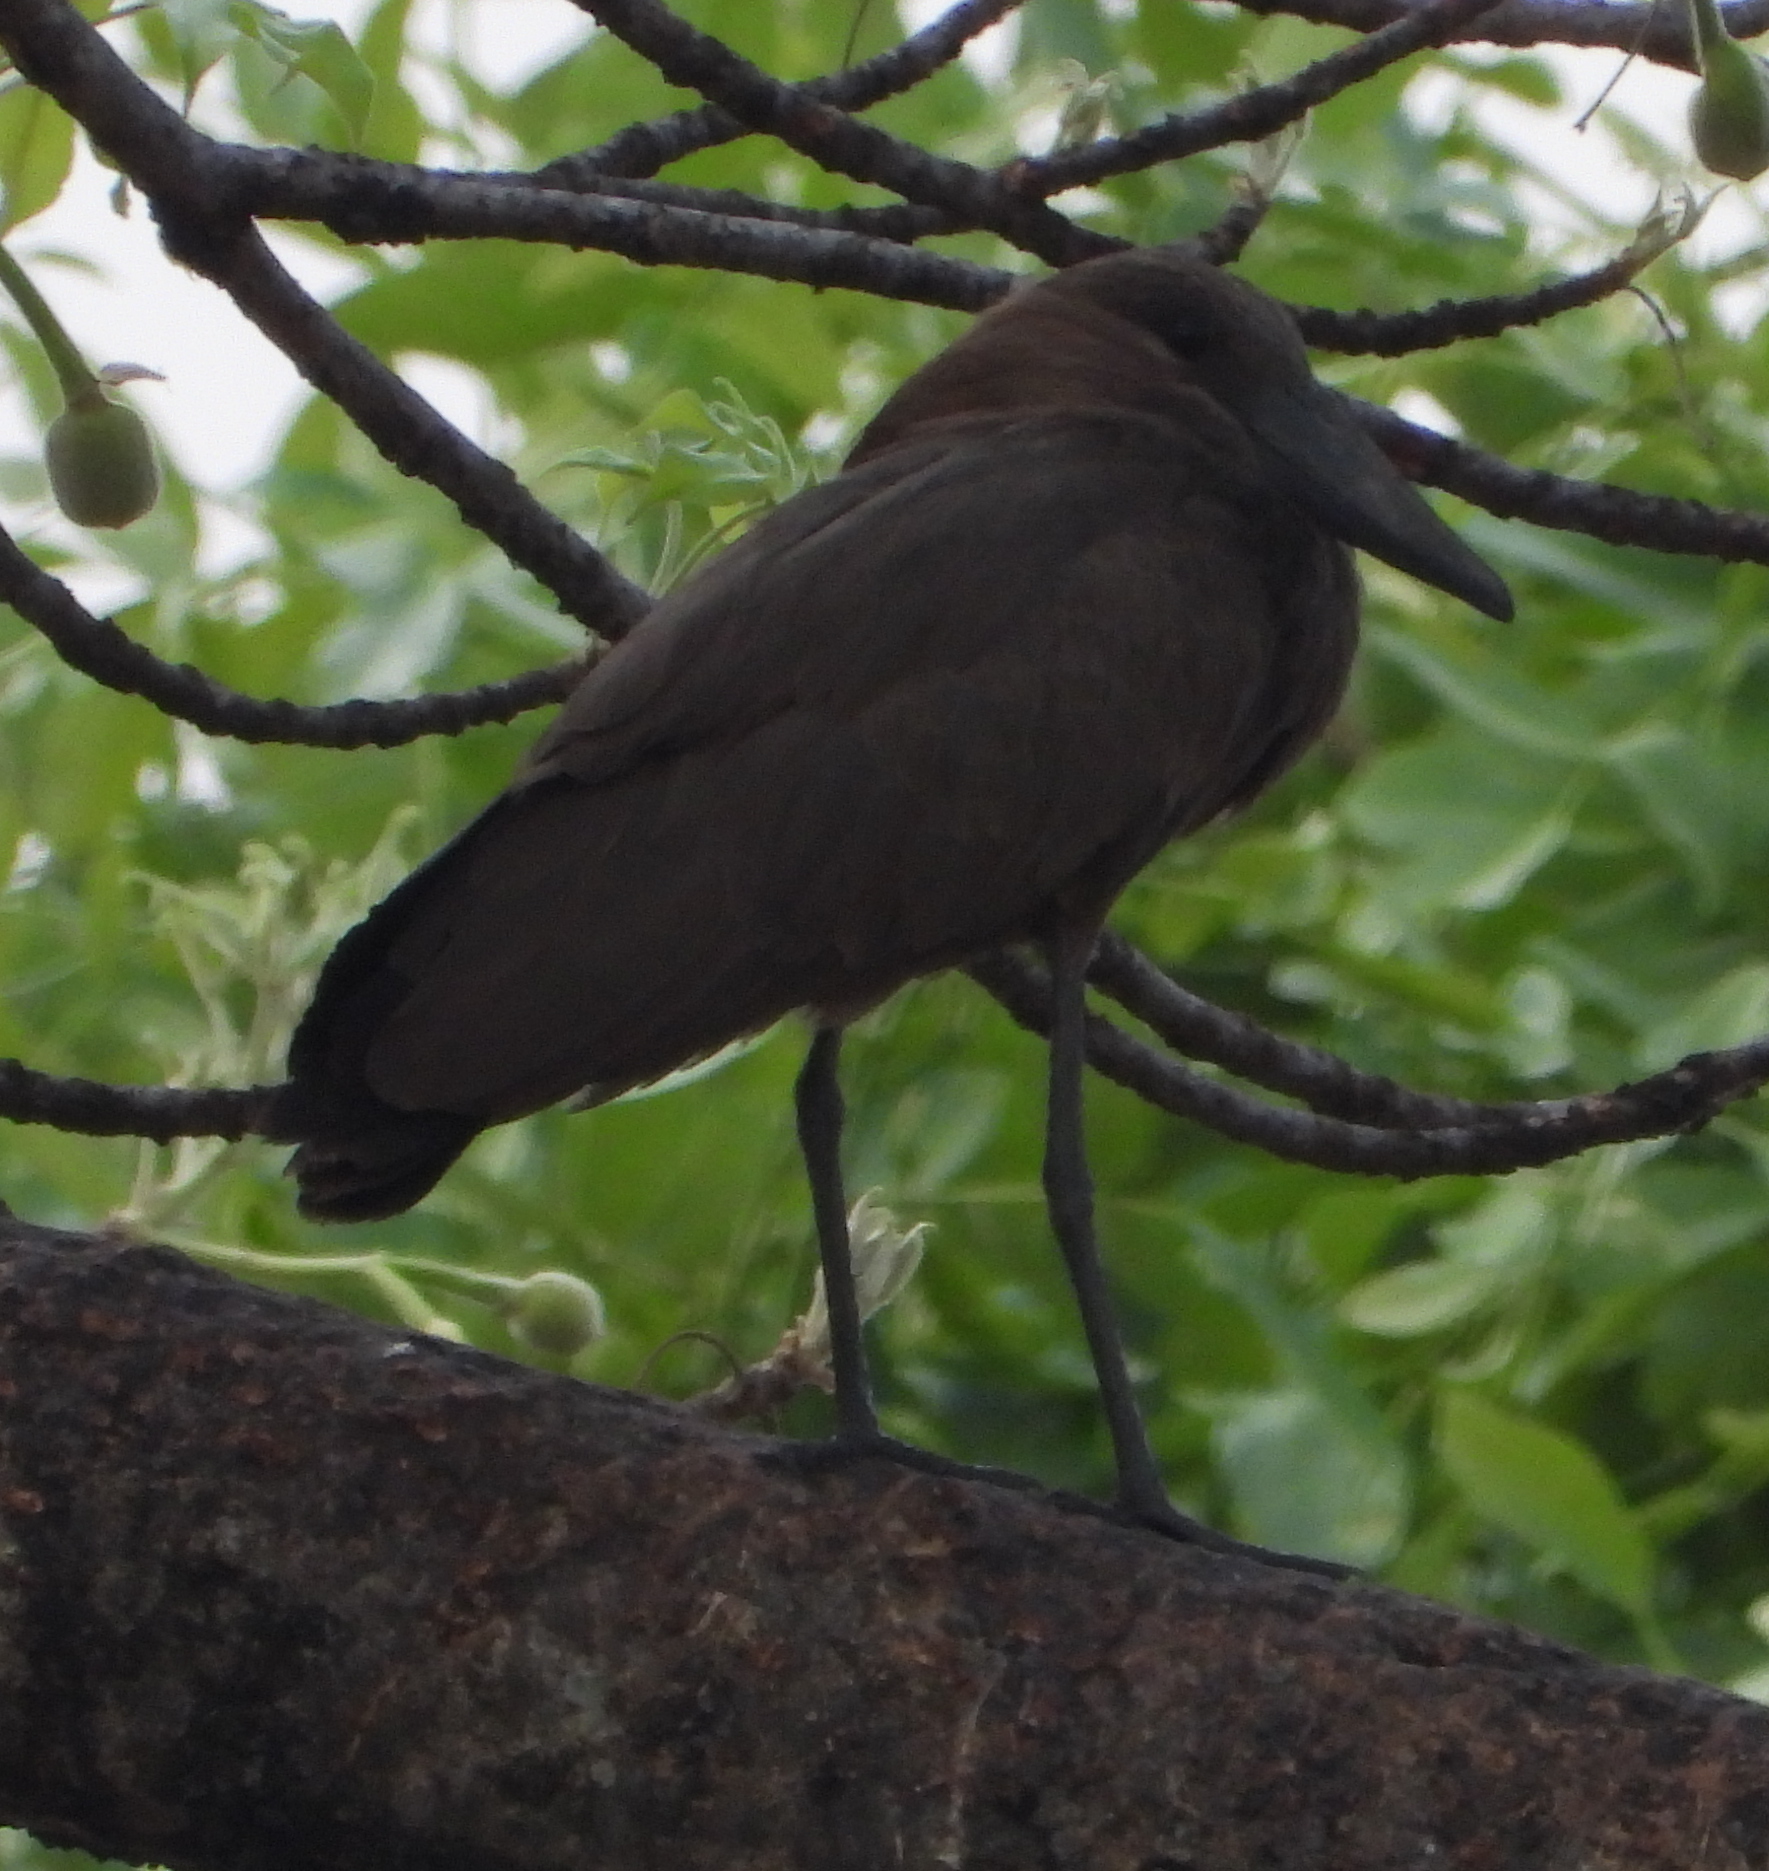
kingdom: Animalia
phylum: Chordata
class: Aves
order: Pelecaniformes
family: Scopidae
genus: Scopus
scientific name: Scopus umbretta
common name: Hamerkop
